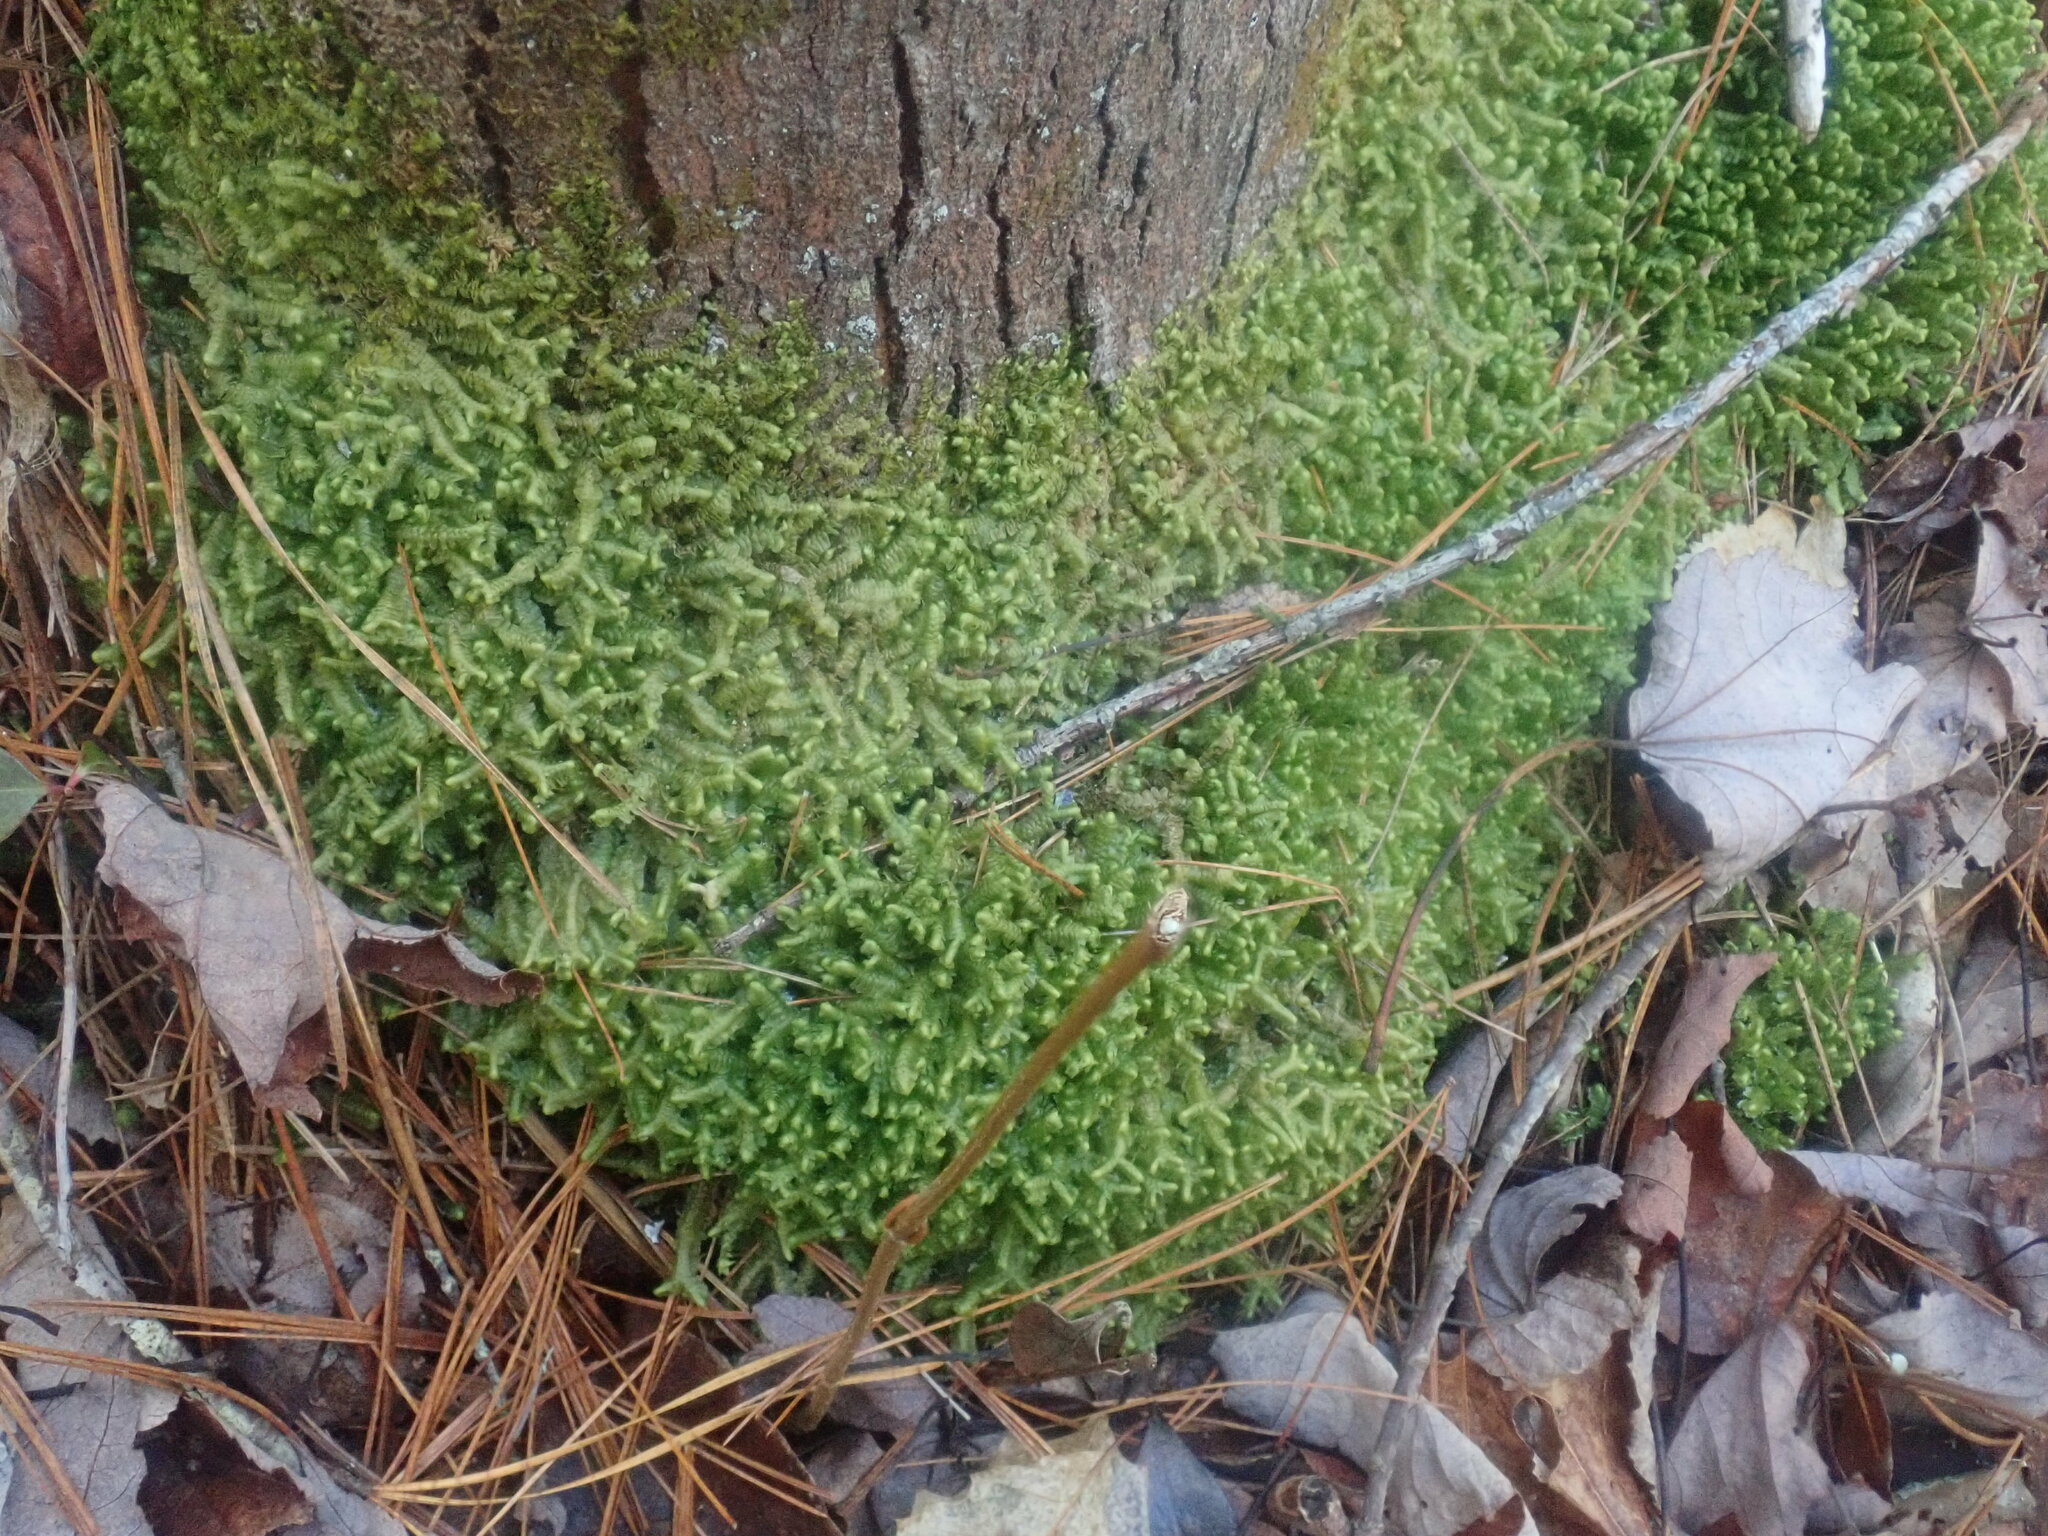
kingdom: Plantae
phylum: Marchantiophyta
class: Jungermanniopsida
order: Jungermanniales
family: Lepidoziaceae
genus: Bazzania
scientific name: Bazzania trilobata
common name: Three-lobed whipwort
